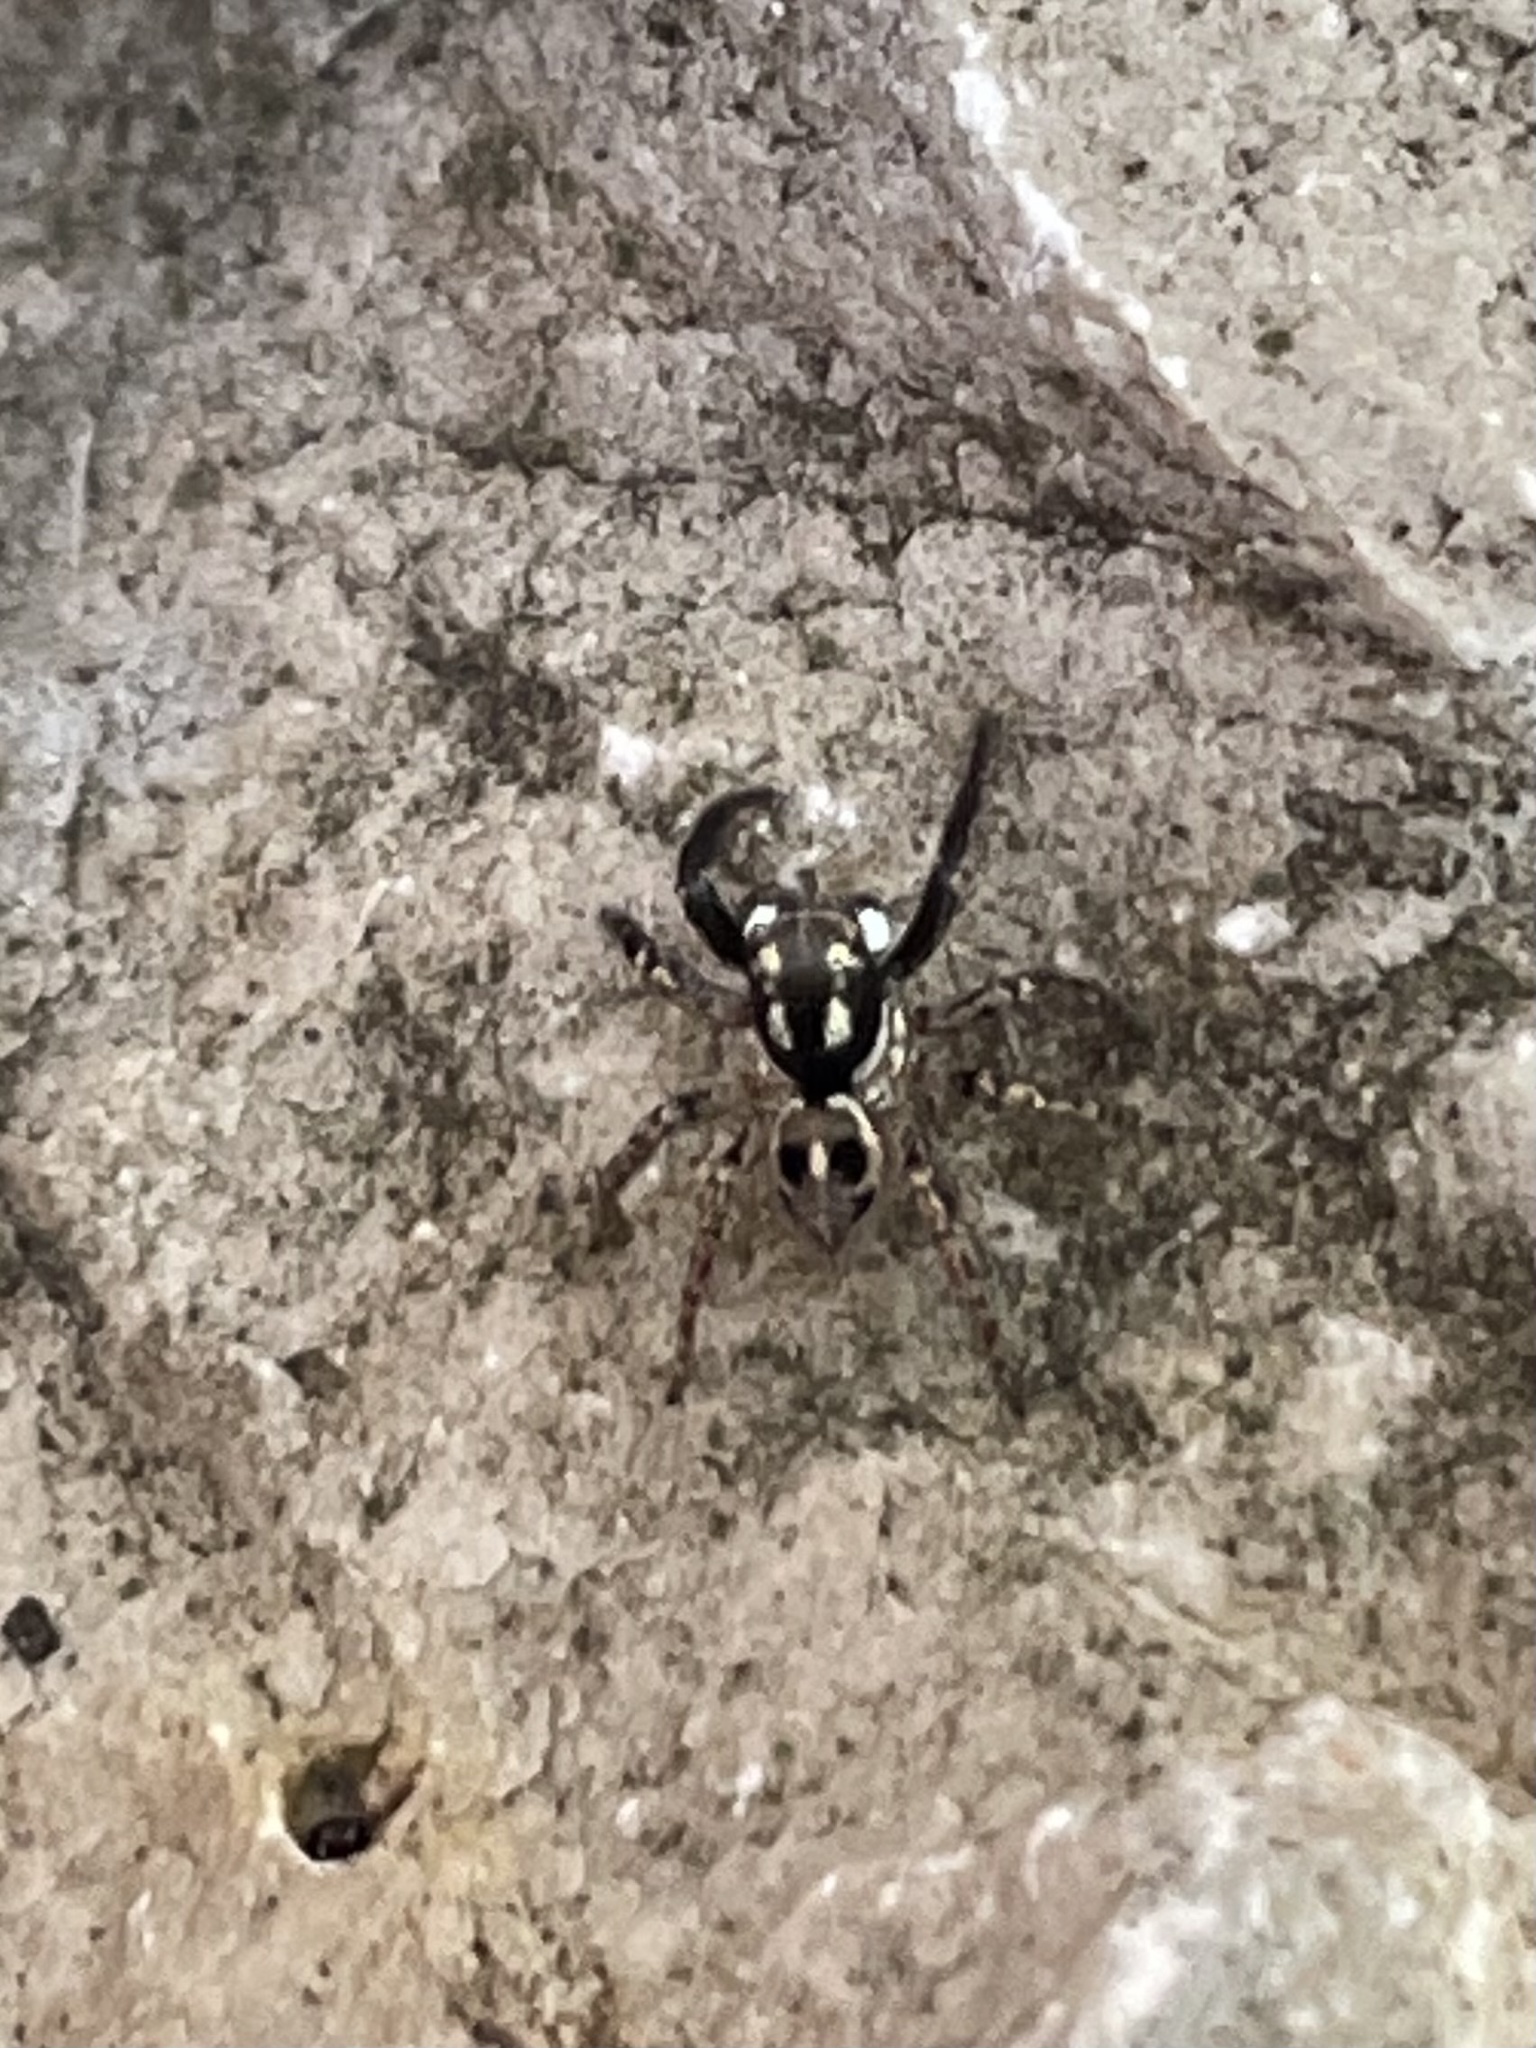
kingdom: Animalia
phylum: Arthropoda
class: Arachnida
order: Araneae
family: Salticidae
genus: Anasaitis
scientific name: Anasaitis canosa
